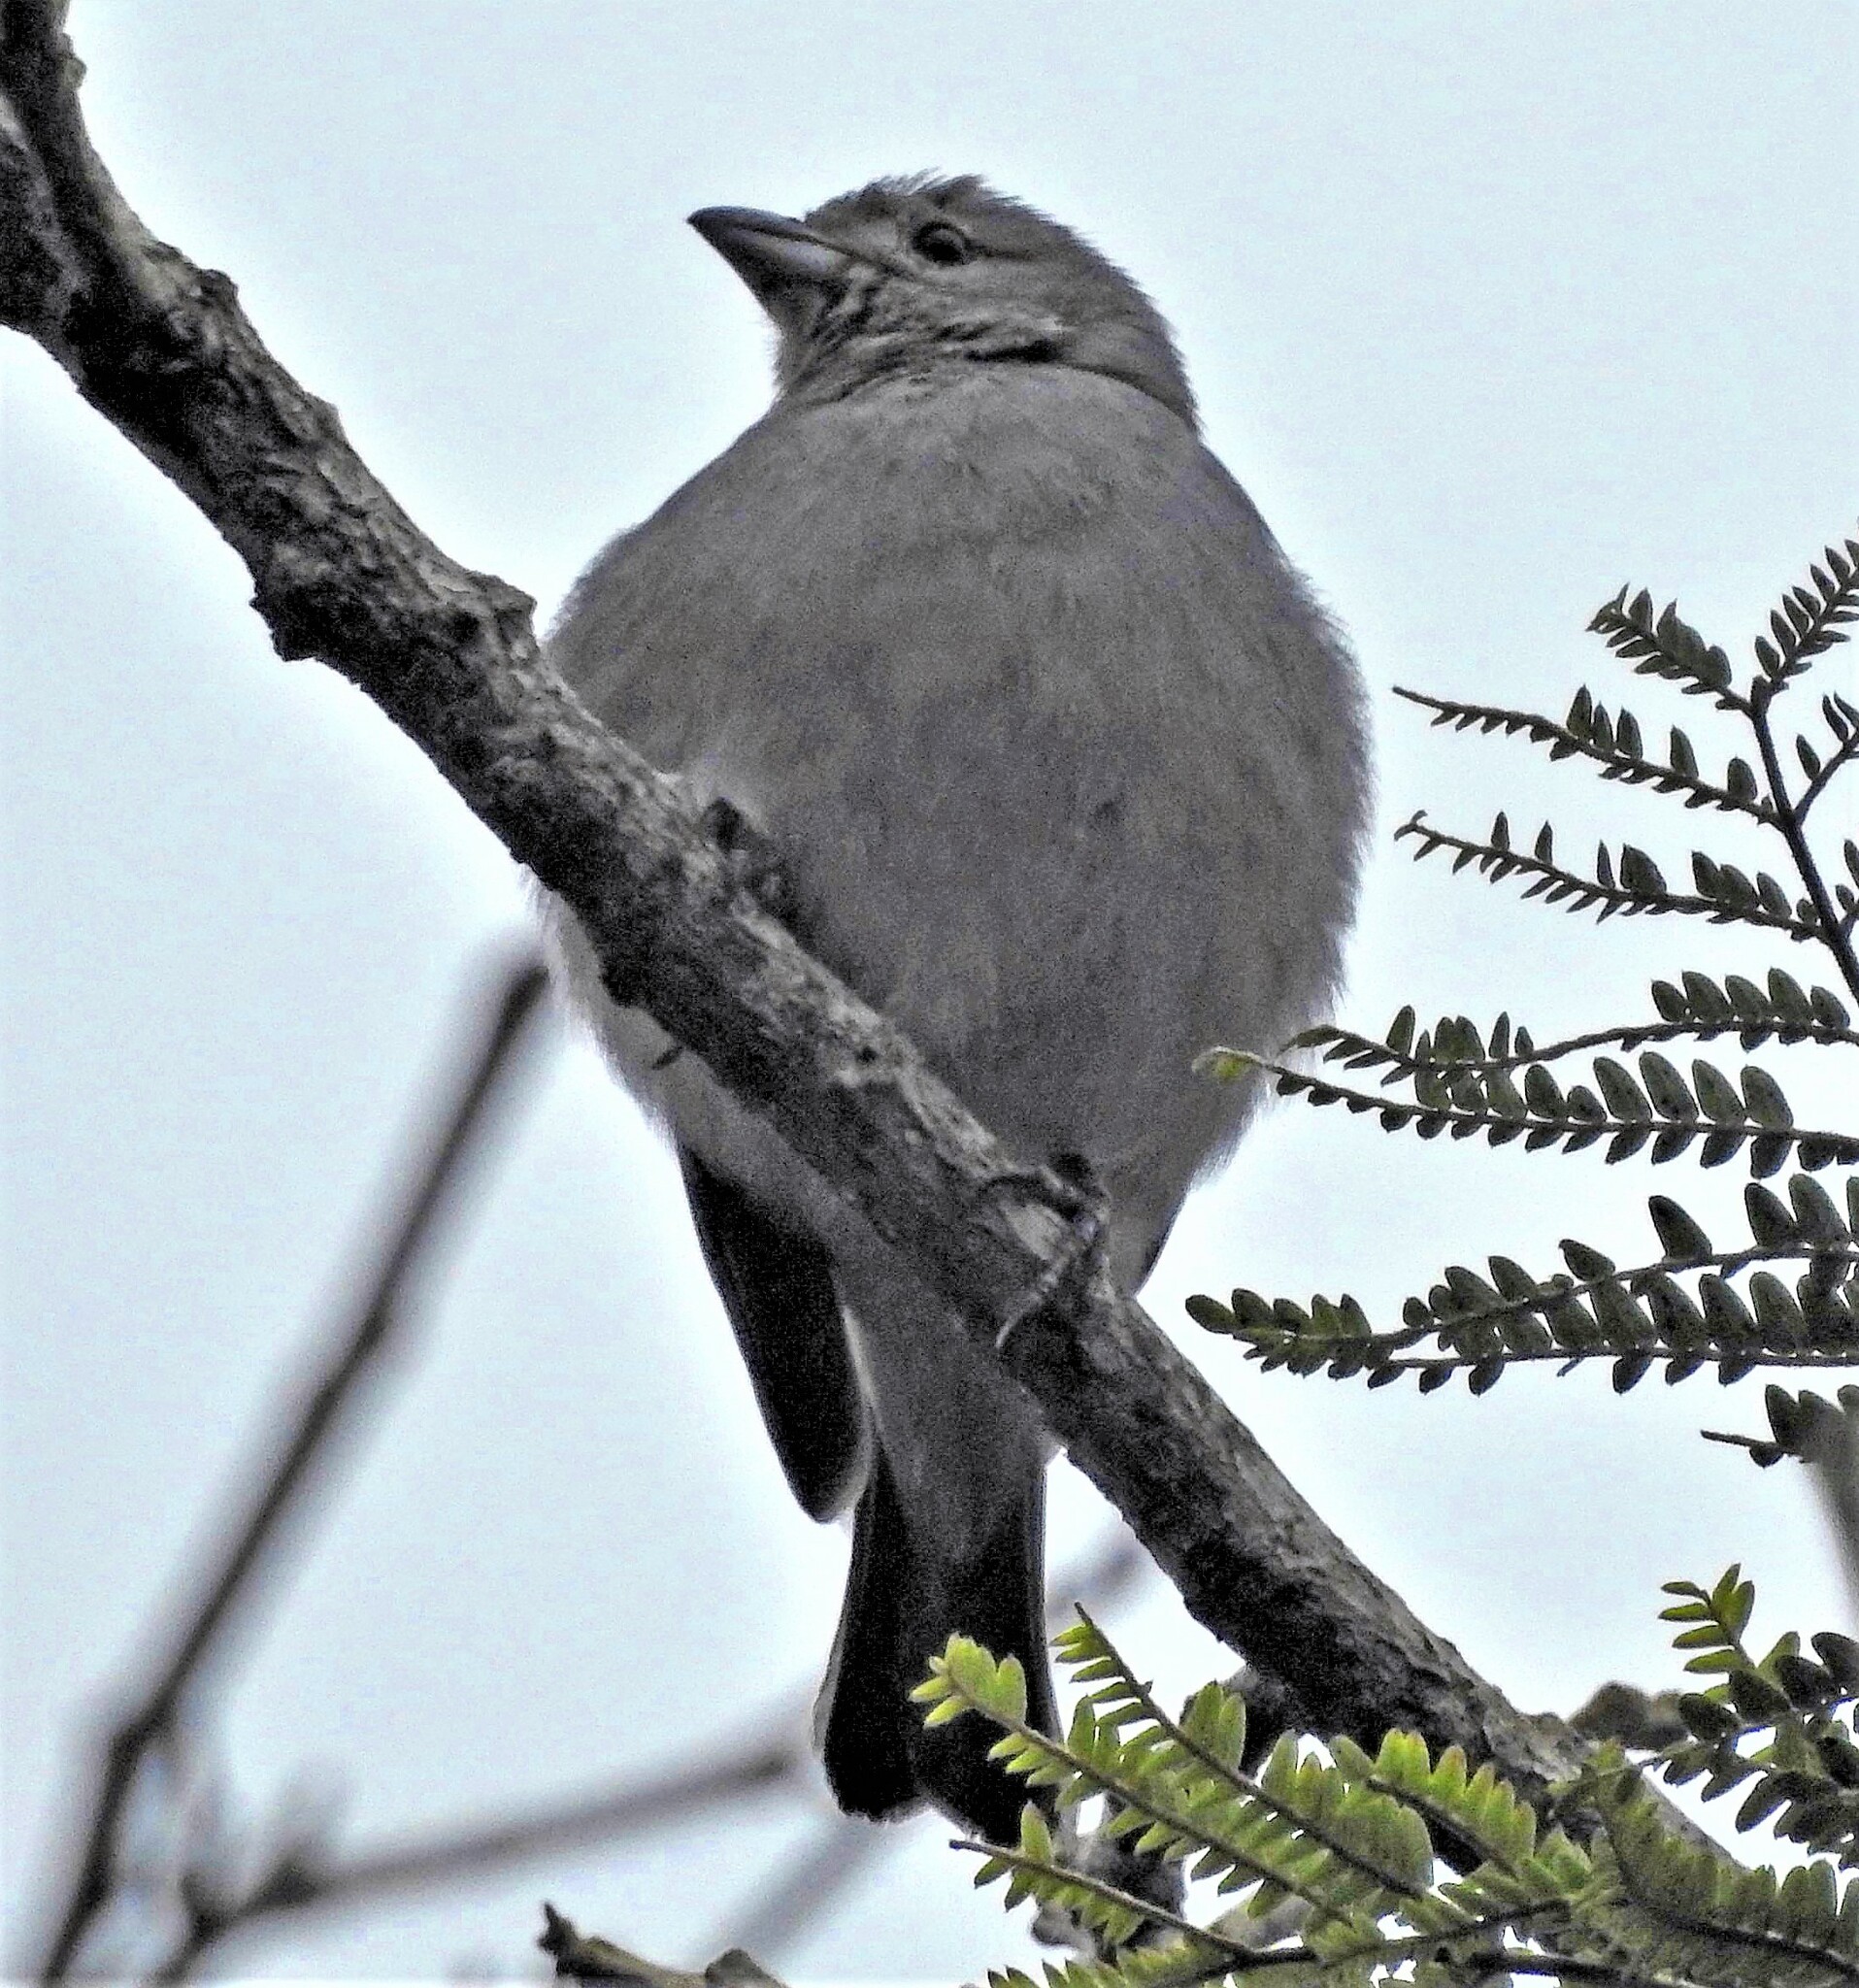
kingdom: Animalia
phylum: Chordata
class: Aves
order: Passeriformes
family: Thraupidae
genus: Thraupis
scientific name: Thraupis sayaca
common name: Sayaca tanager
